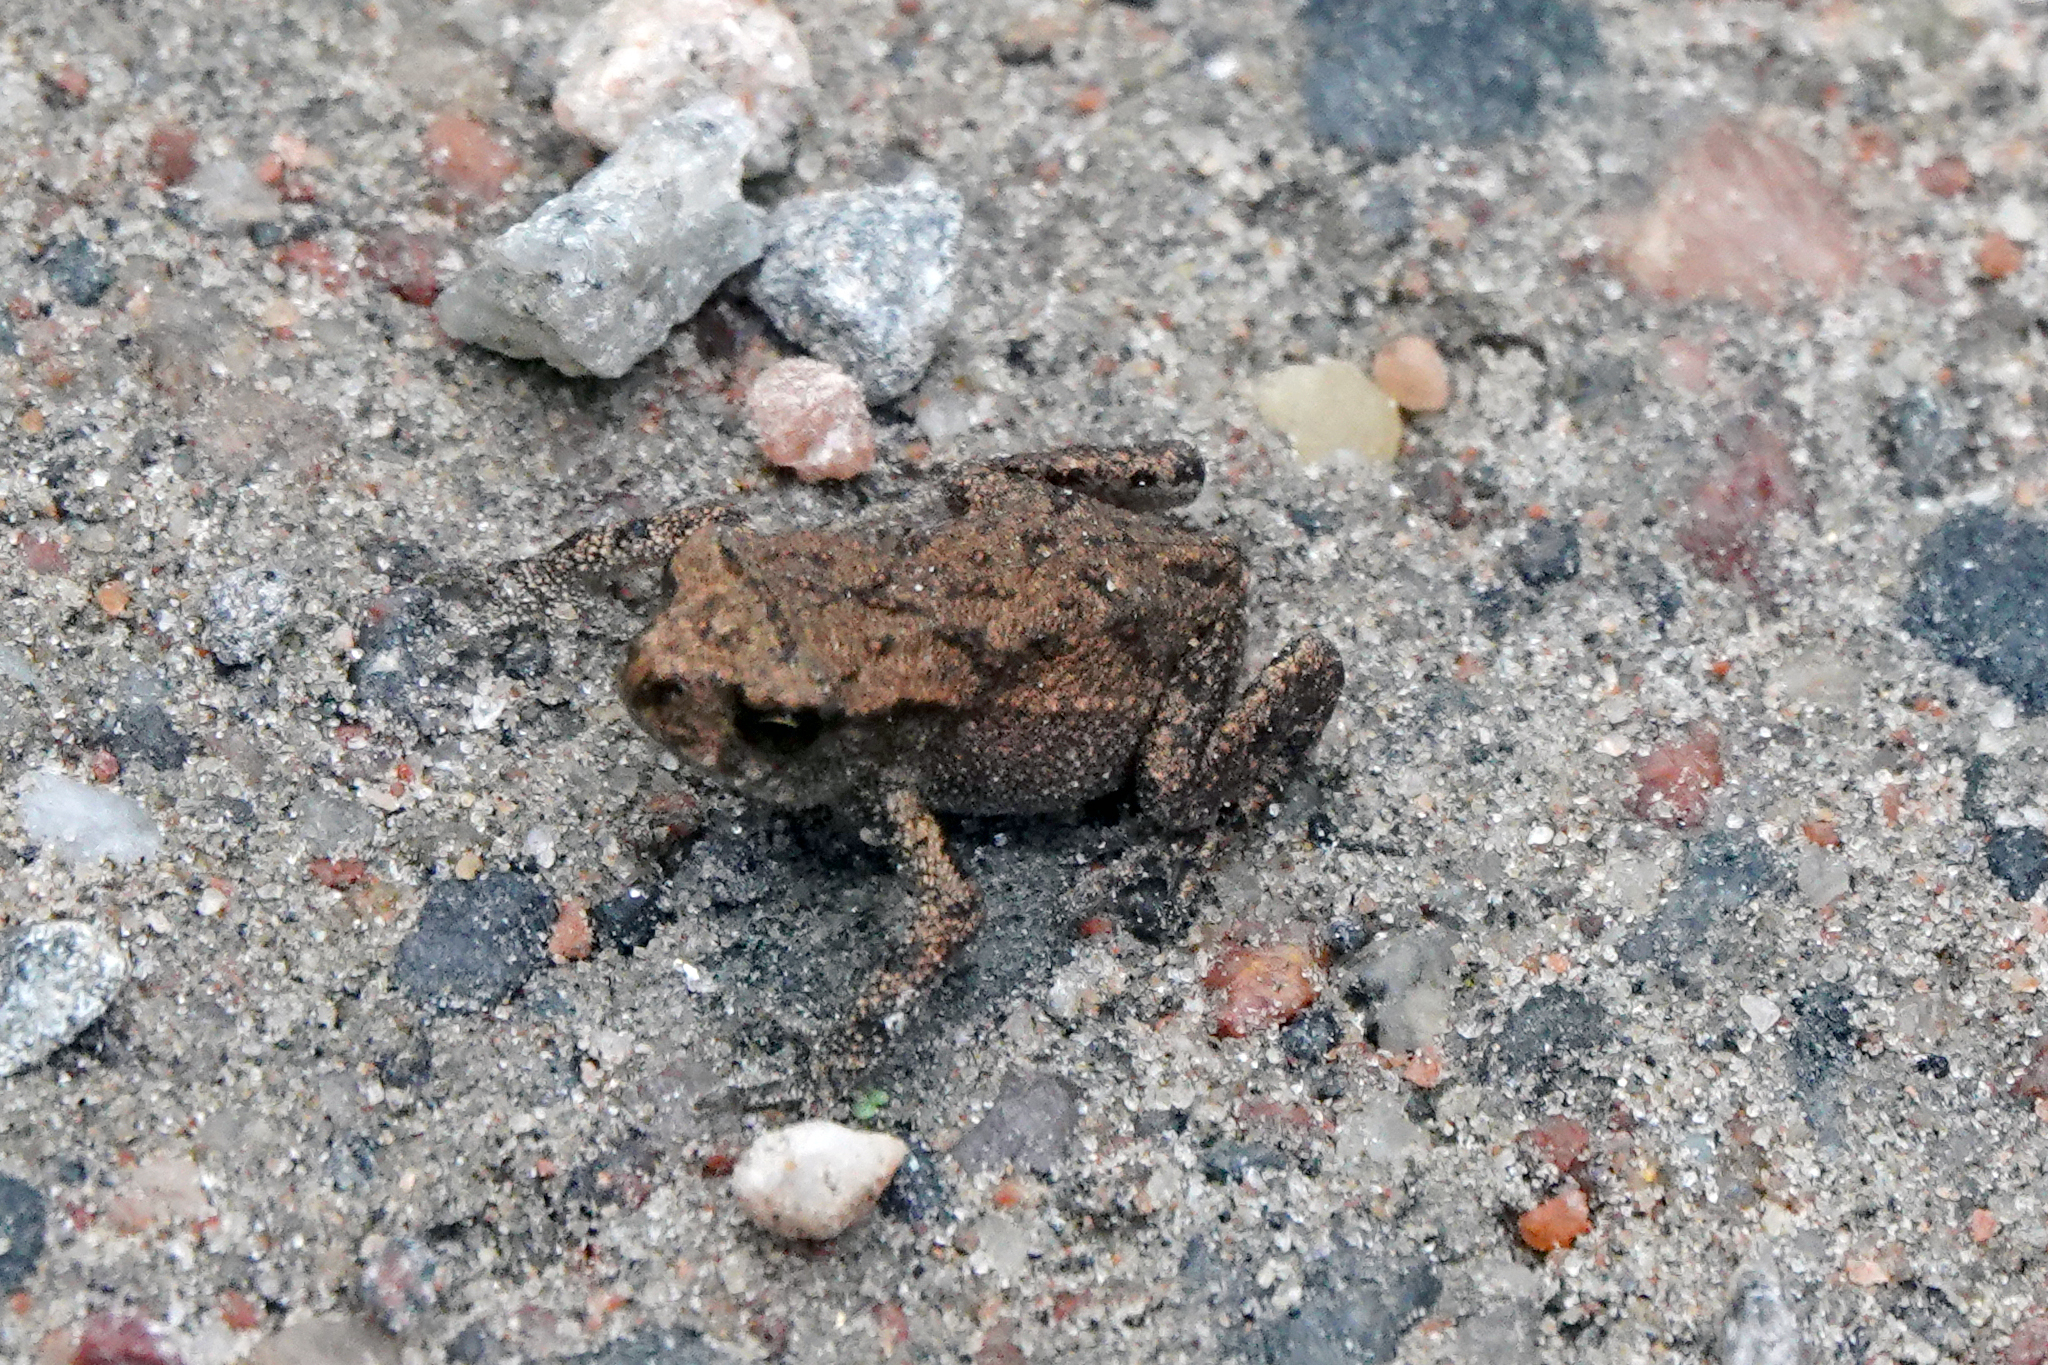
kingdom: Animalia
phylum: Chordata
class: Amphibia
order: Anura
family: Bufonidae
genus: Bufo
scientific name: Bufo bufo
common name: Common toad
